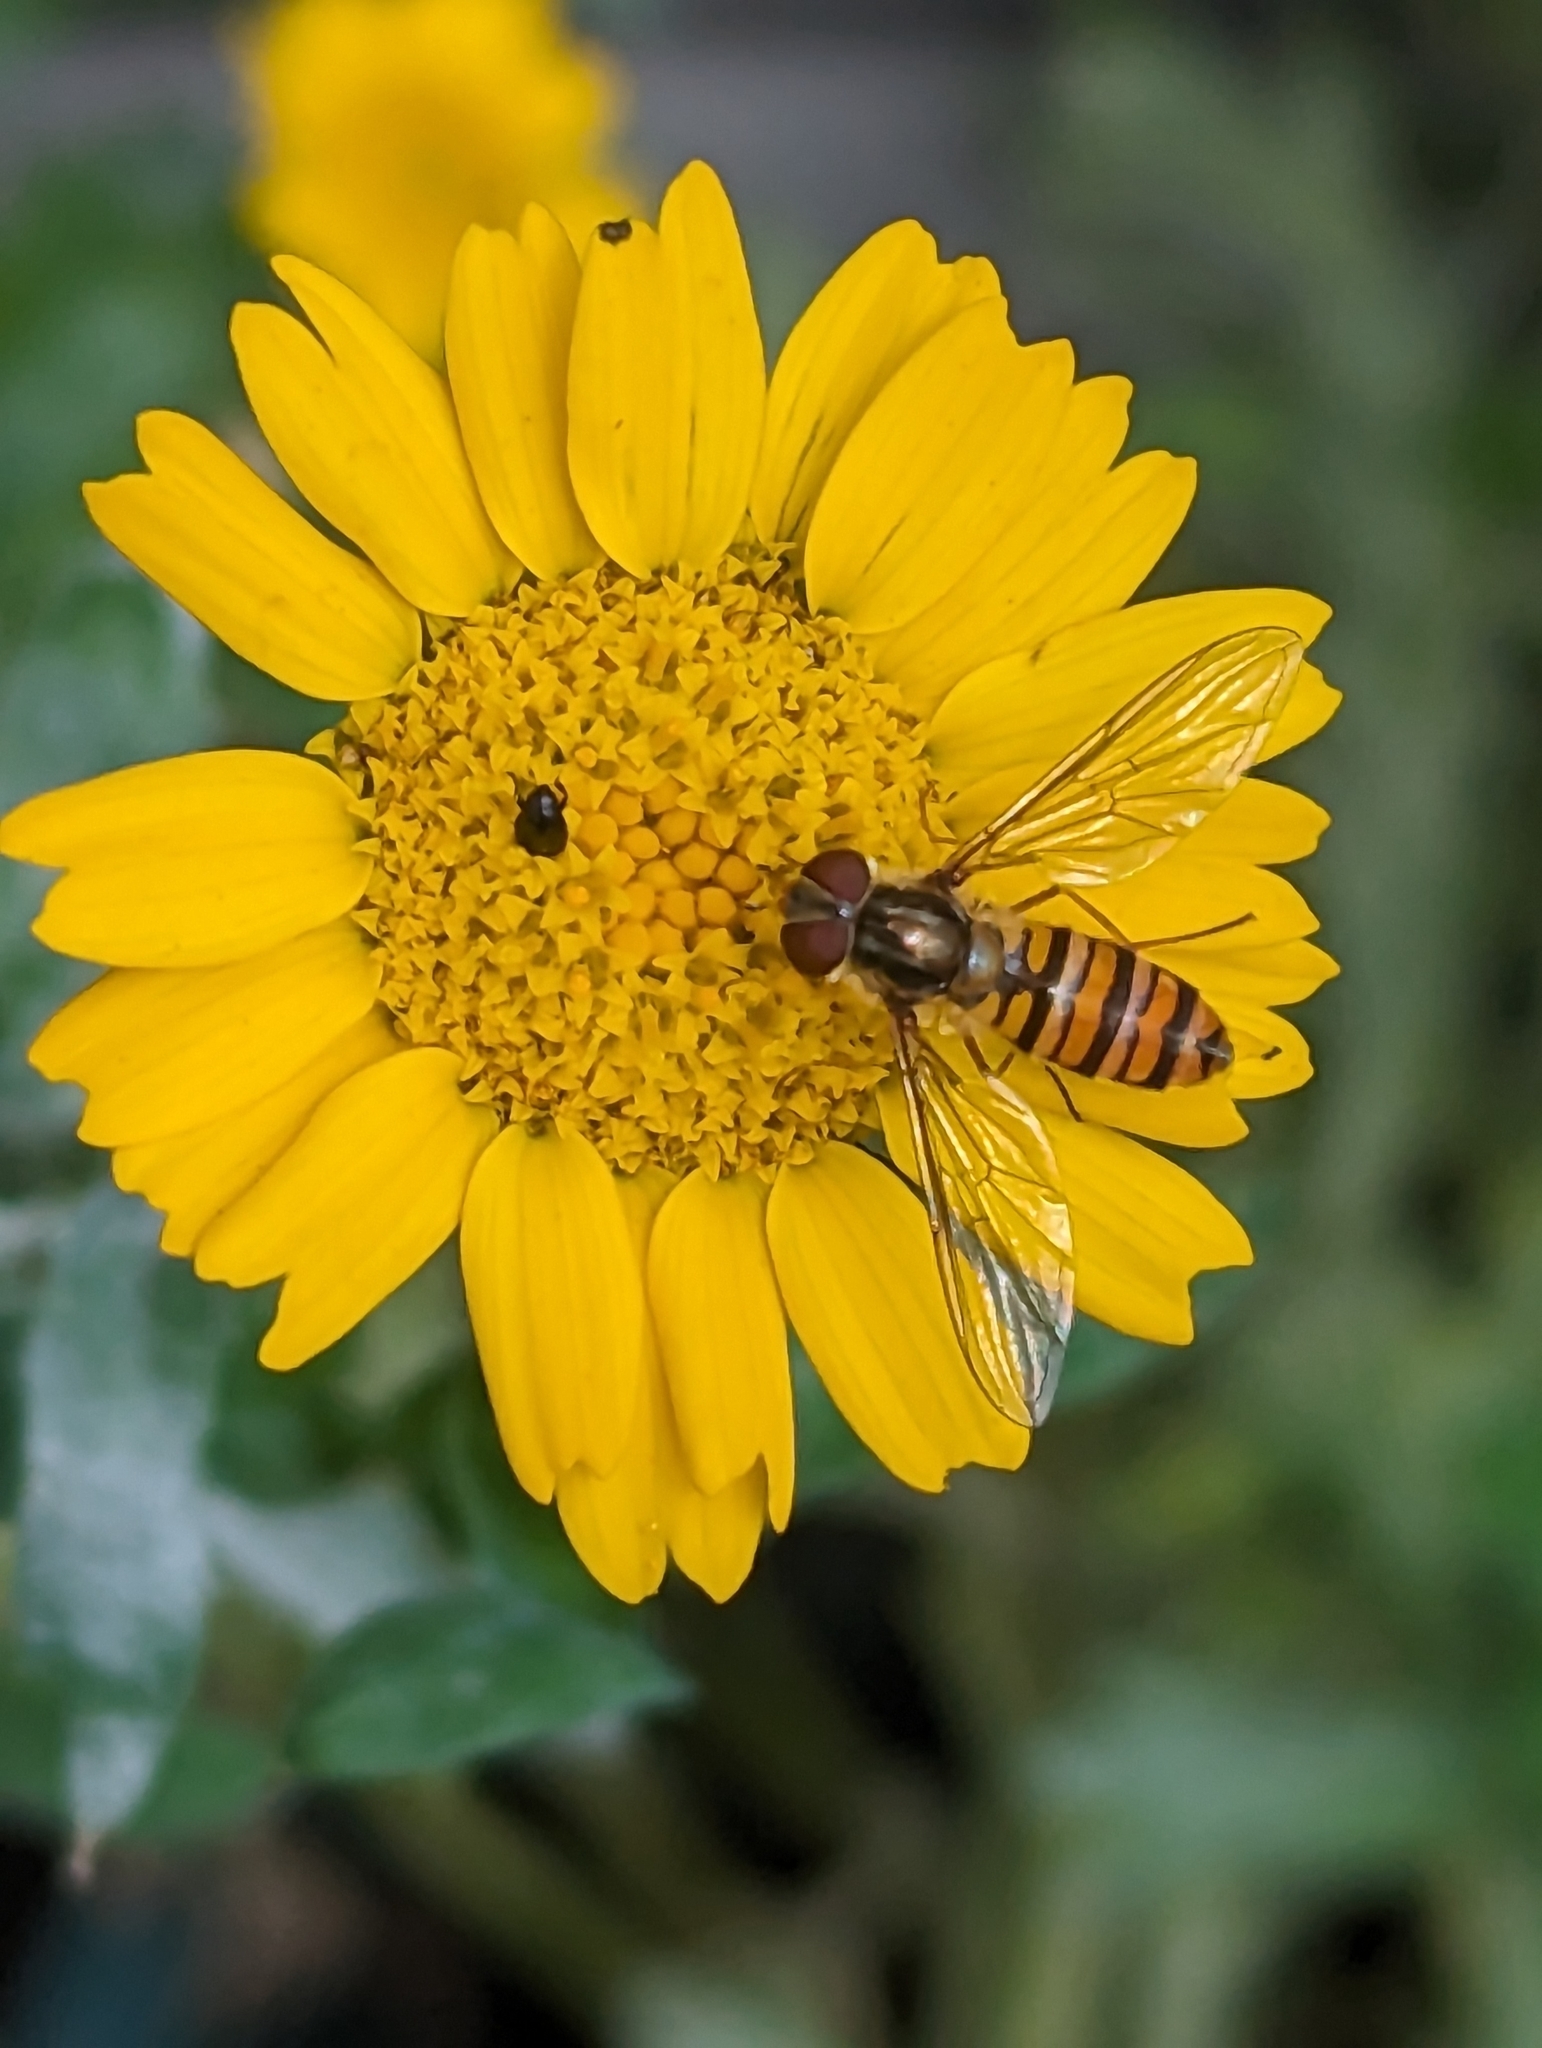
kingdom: Animalia
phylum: Arthropoda
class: Insecta
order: Diptera
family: Syrphidae
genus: Episyrphus
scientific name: Episyrphus balteatus
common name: Marmalade hoverfly
